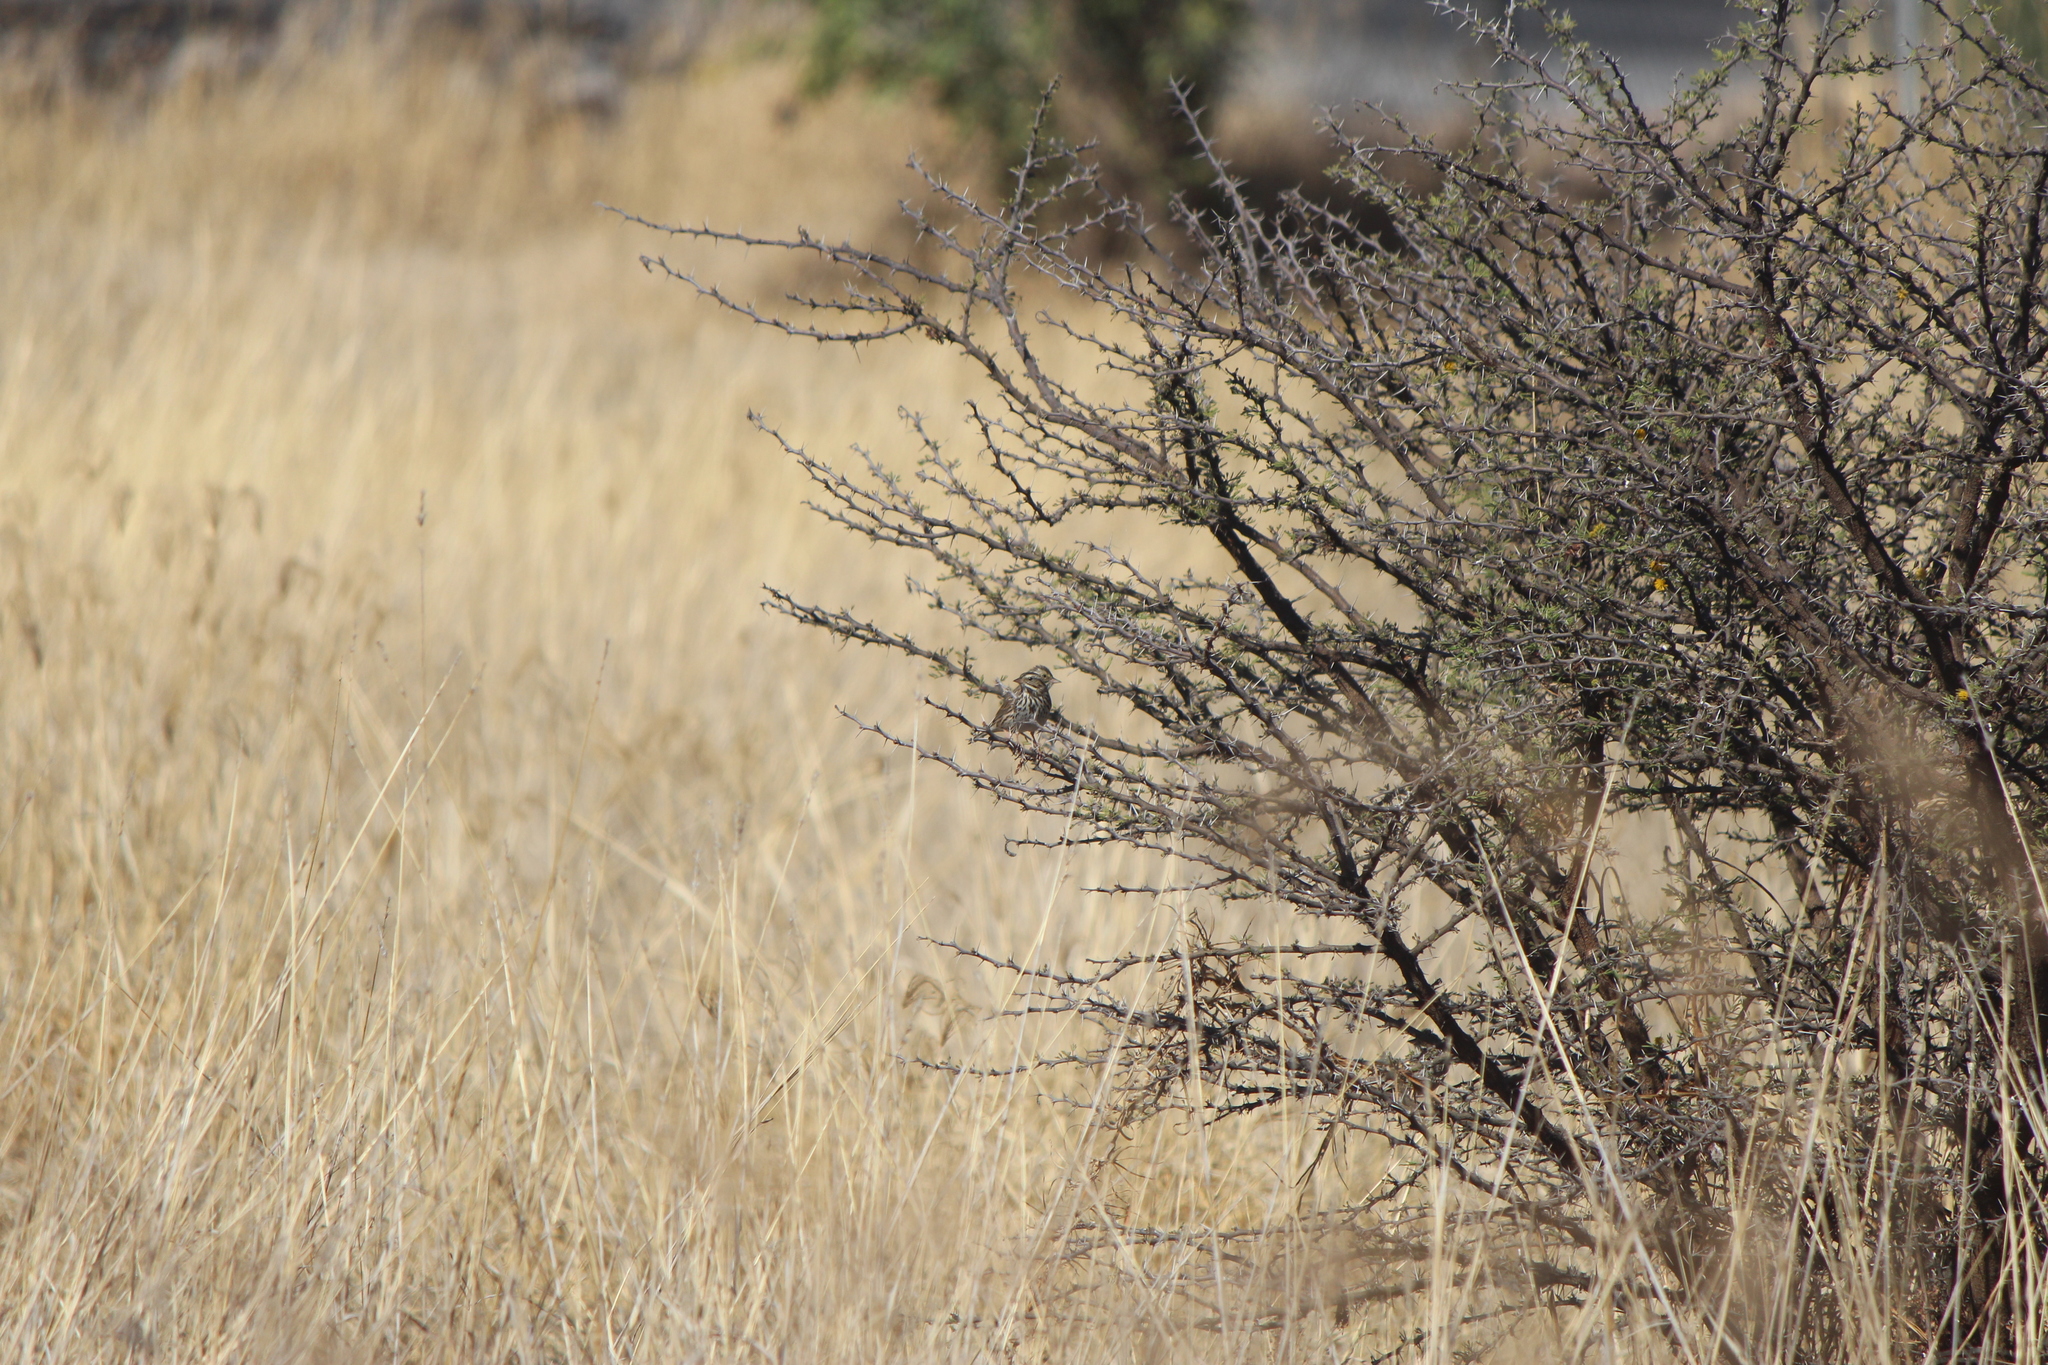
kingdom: Animalia
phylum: Chordata
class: Aves
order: Passeriformes
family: Passerellidae
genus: Passerculus
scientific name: Passerculus sandwichensis
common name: Savannah sparrow
